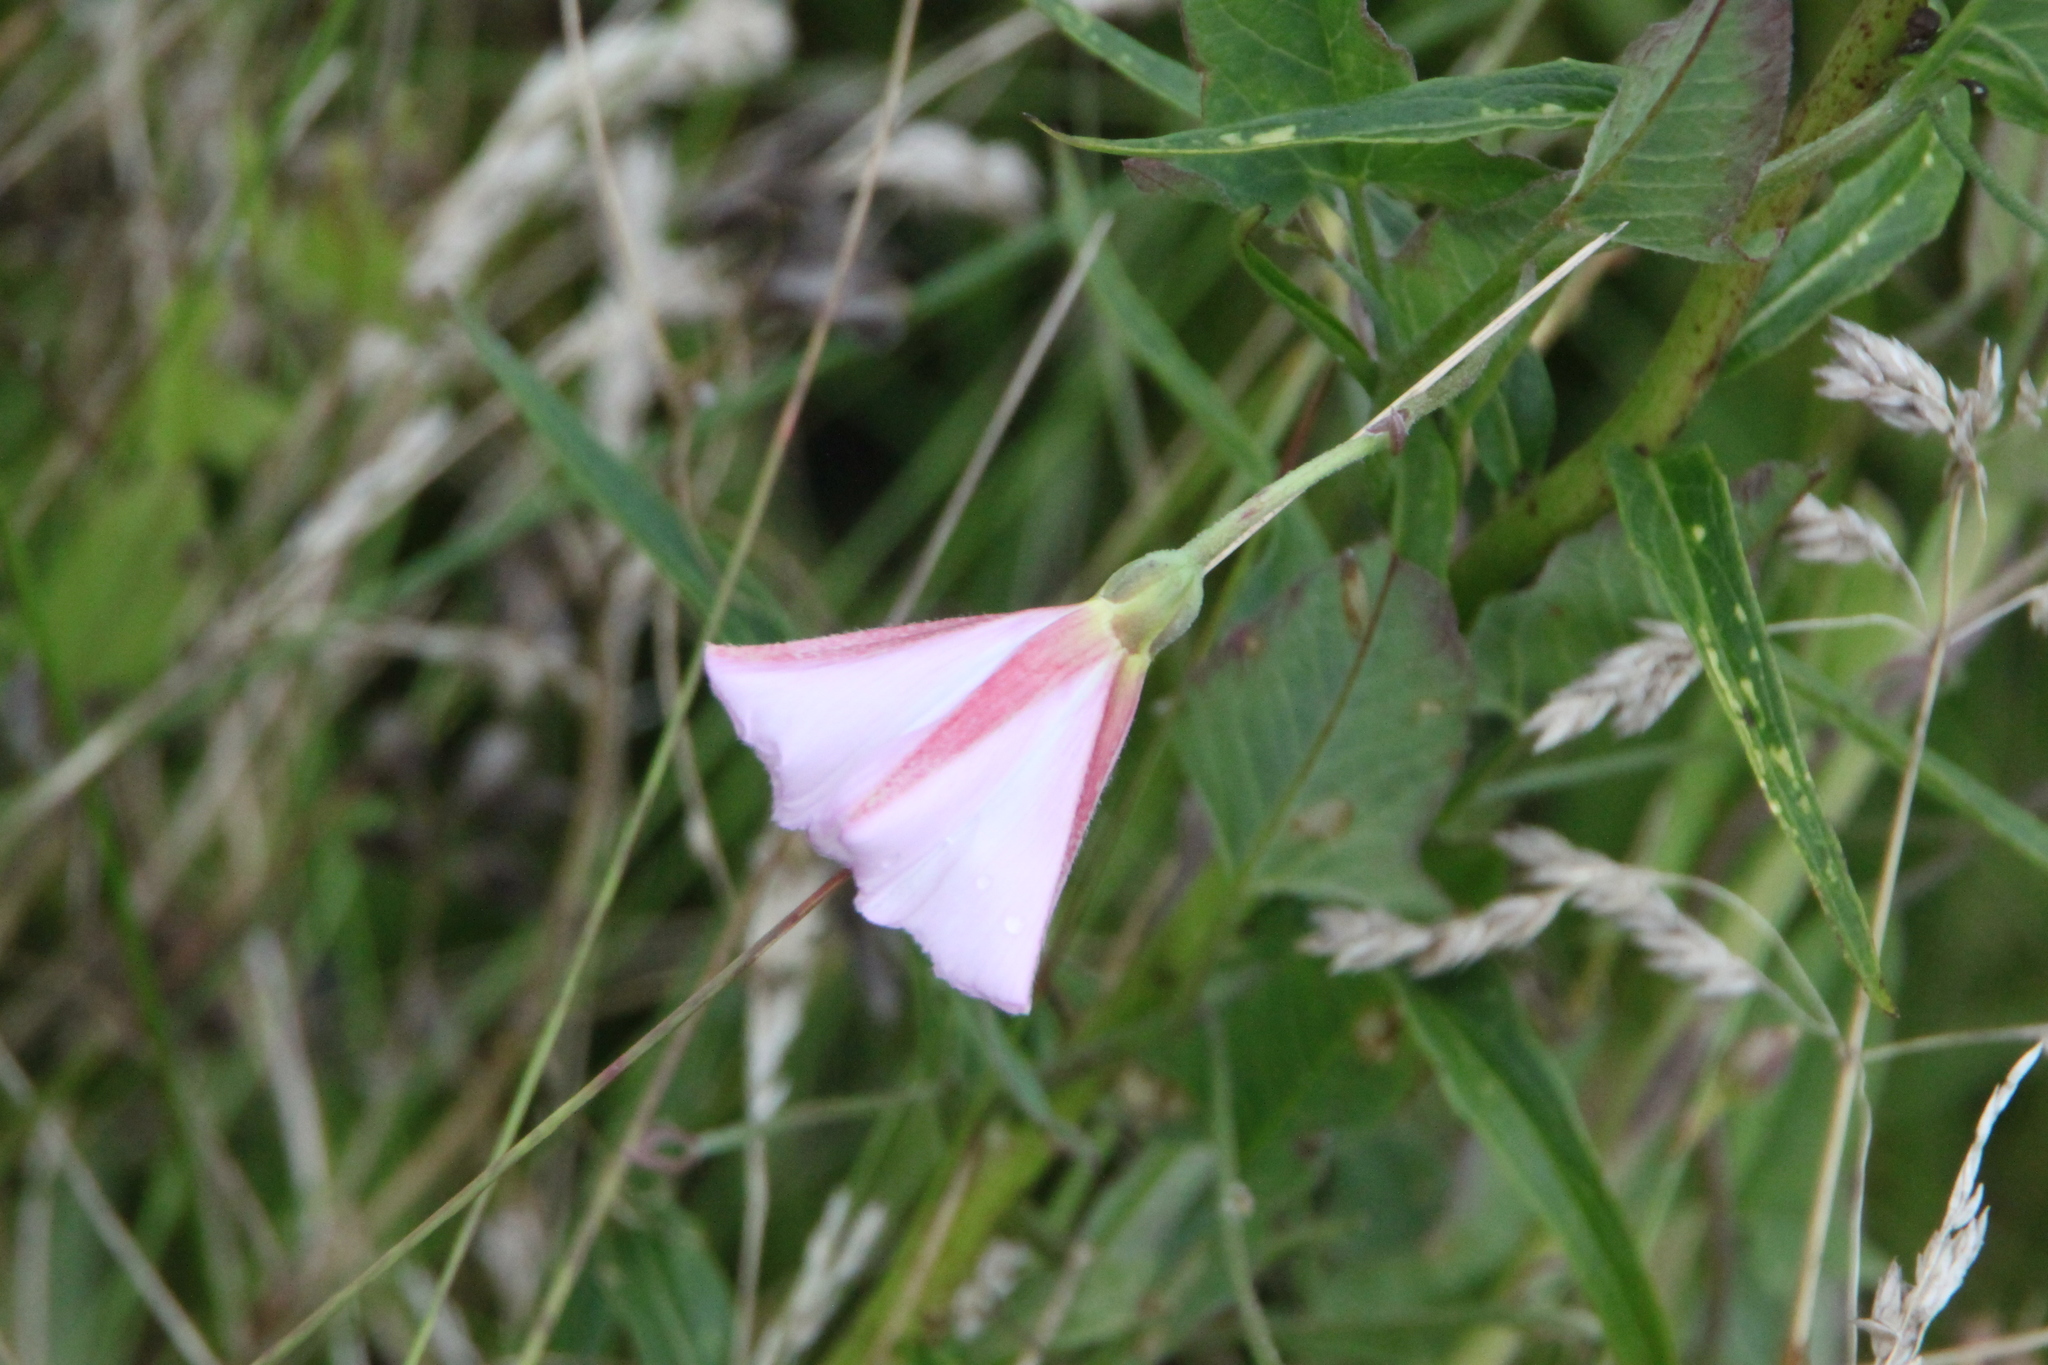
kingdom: Plantae
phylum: Tracheophyta
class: Magnoliopsida
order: Solanales
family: Convolvulaceae
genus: Convolvulus
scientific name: Convolvulus arvensis
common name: Field bindweed
